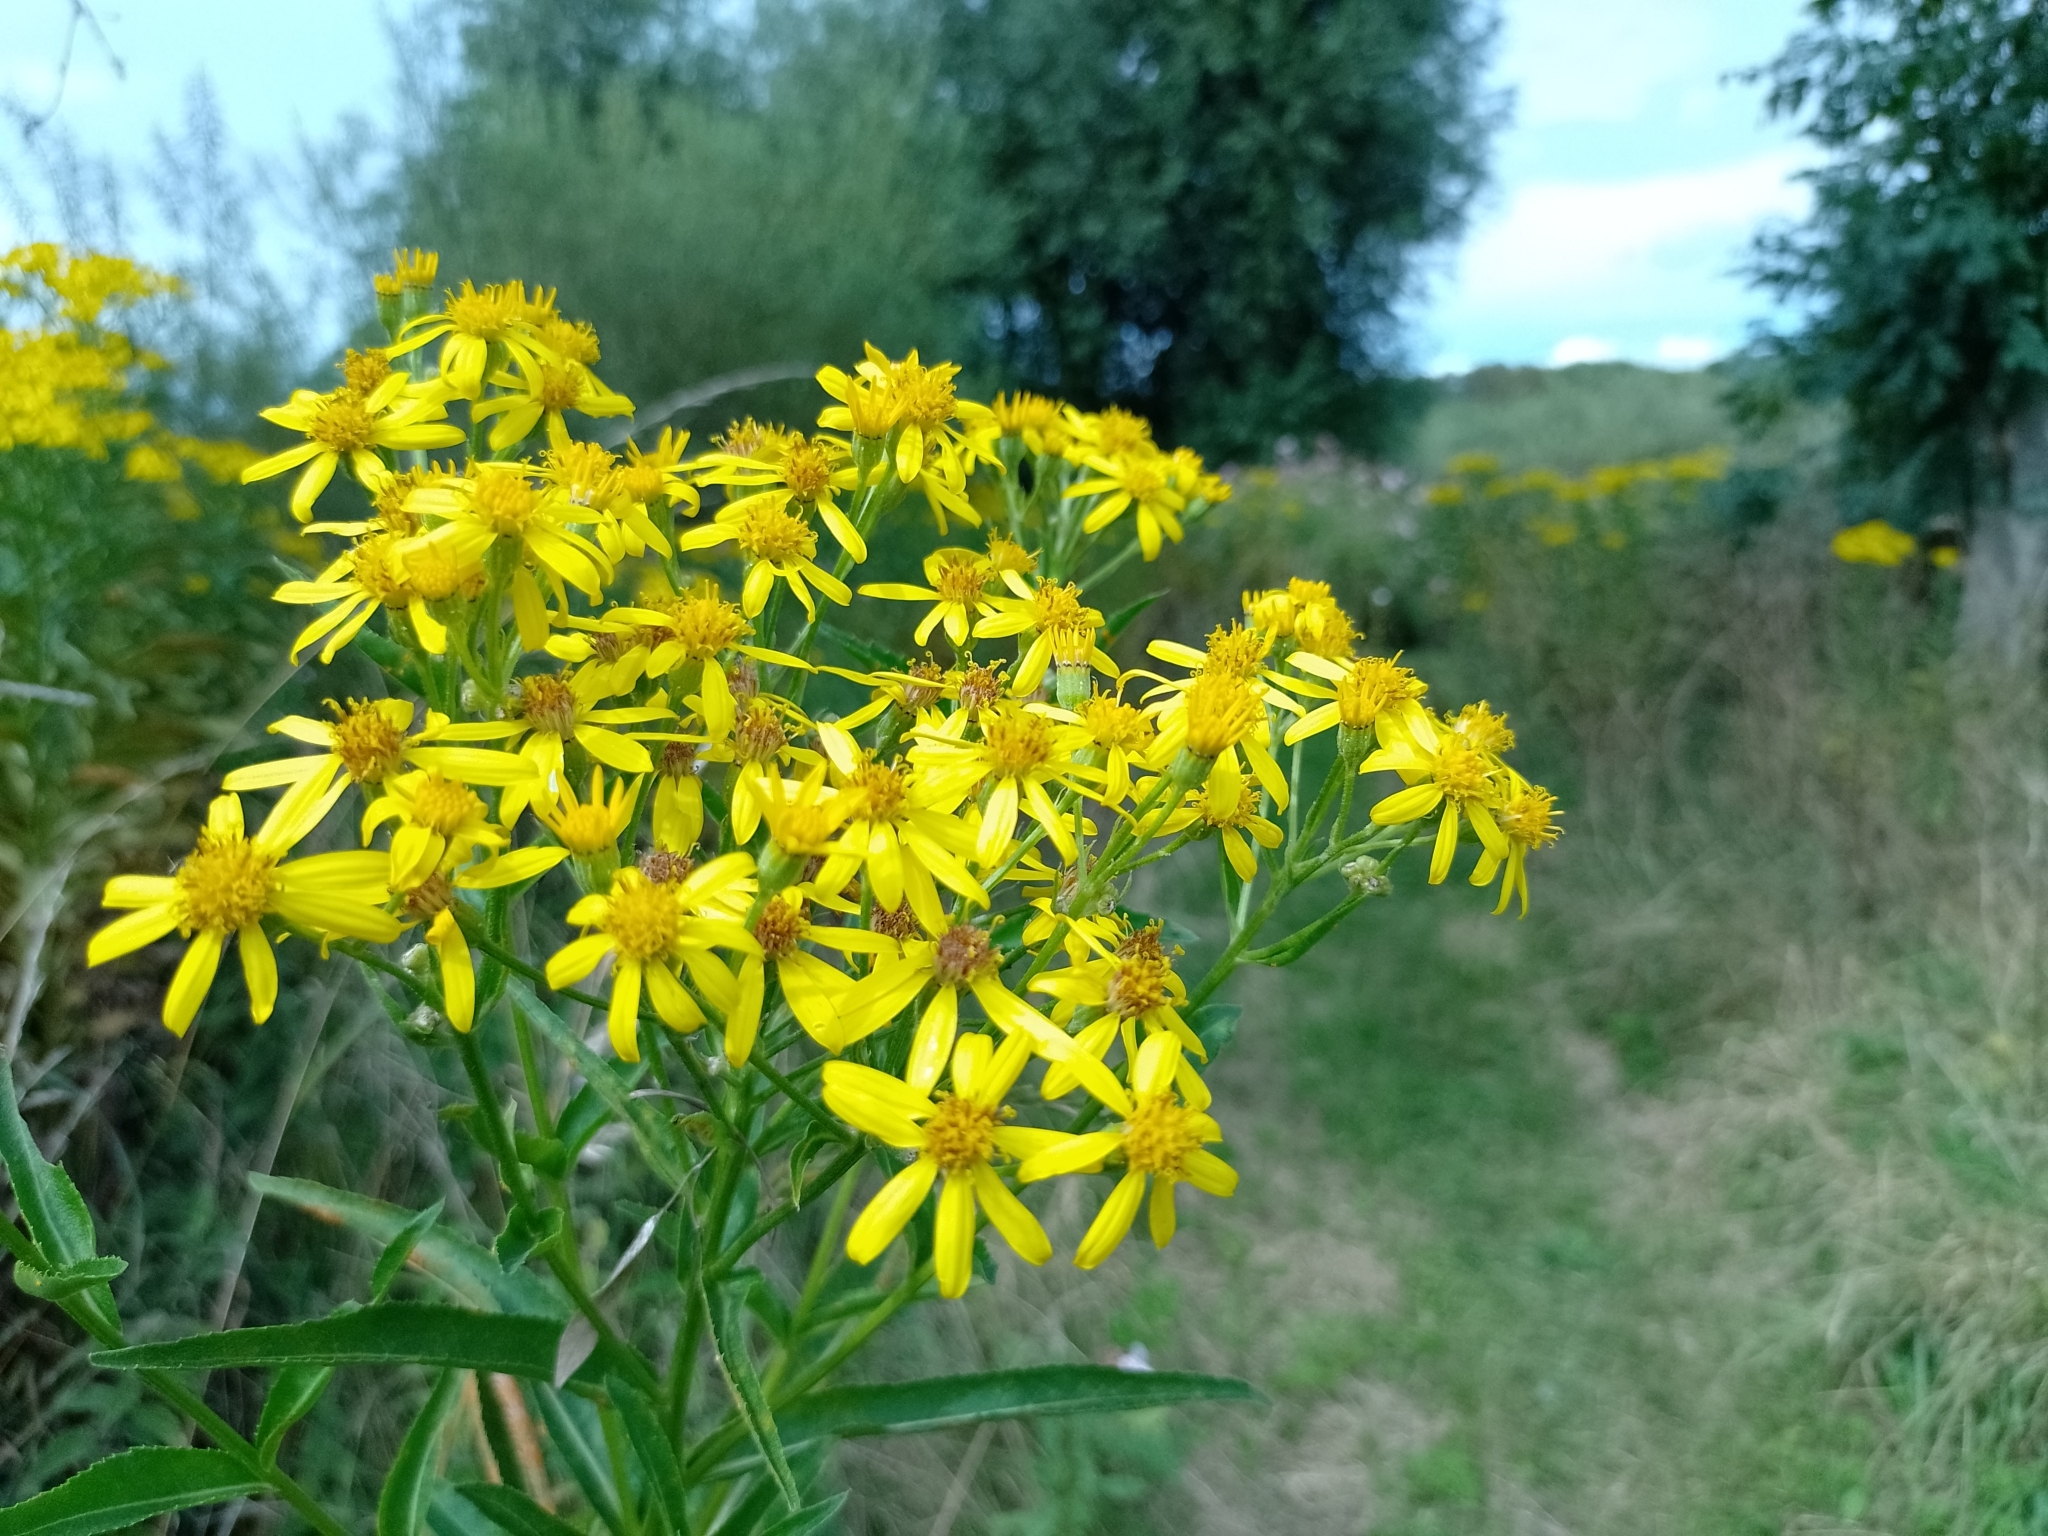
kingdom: Plantae
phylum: Tracheophyta
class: Magnoliopsida
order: Asterales
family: Asteraceae
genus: Senecio
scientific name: Senecio sarracenicus
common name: Broad-leaved ragwort
